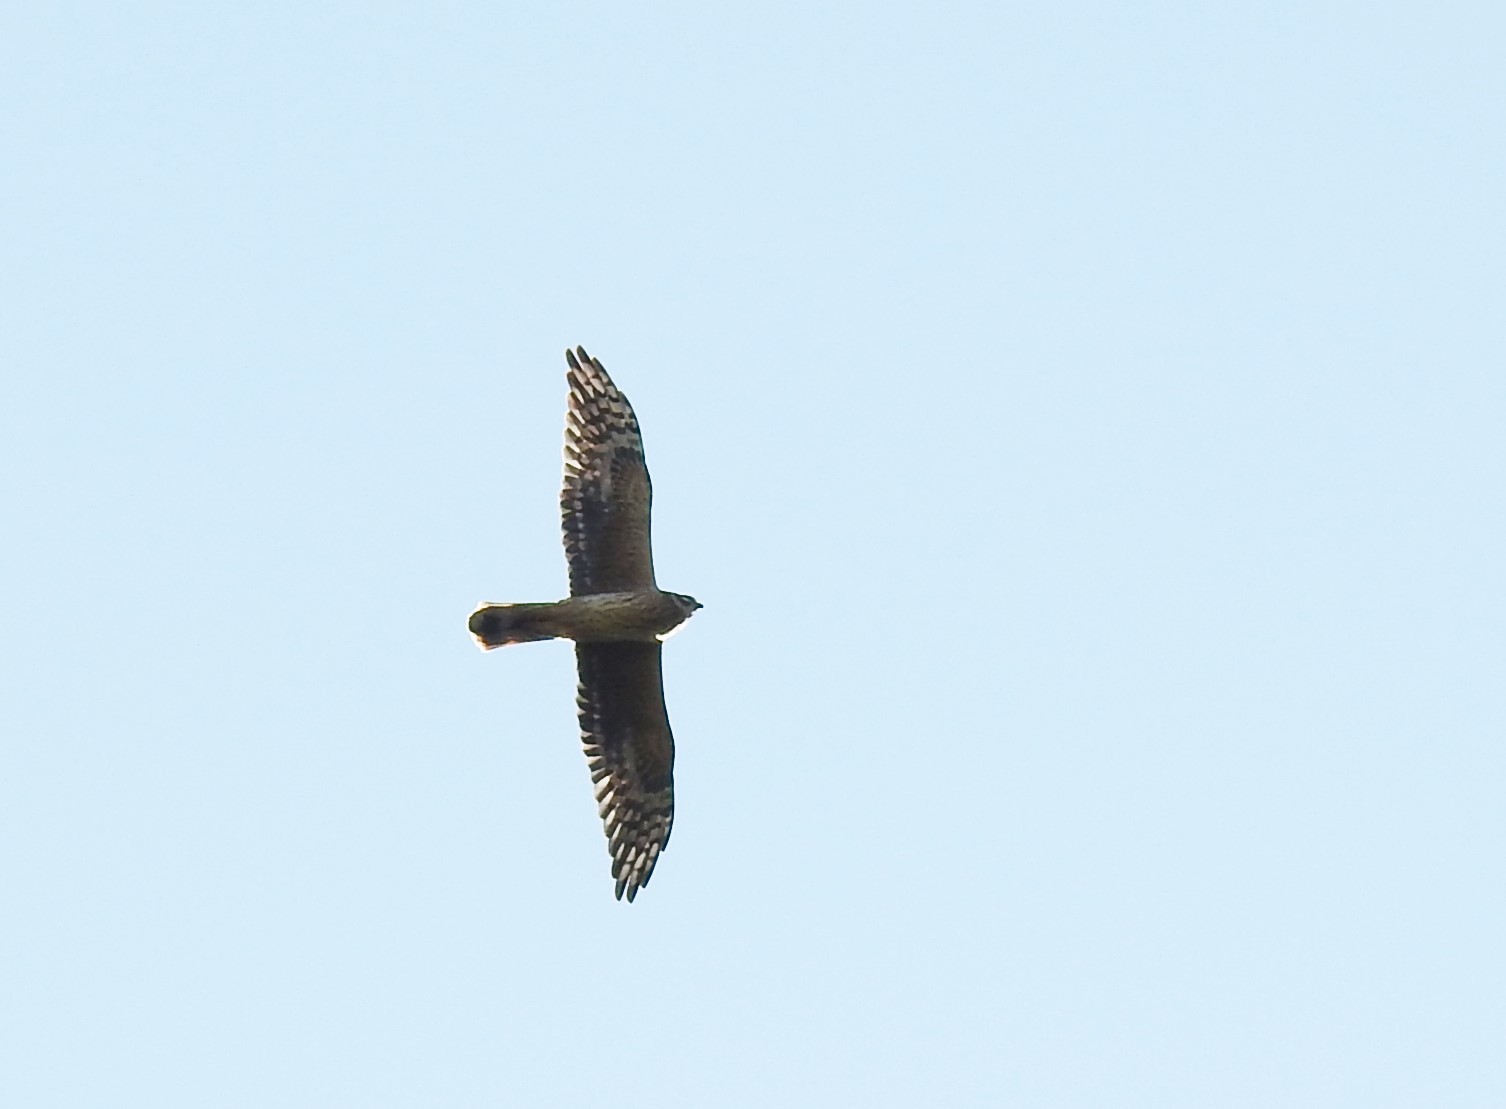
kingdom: Animalia
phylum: Chordata
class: Aves
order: Accipitriformes
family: Accipitridae
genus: Circus
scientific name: Circus macrourus
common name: Pallid harrier
